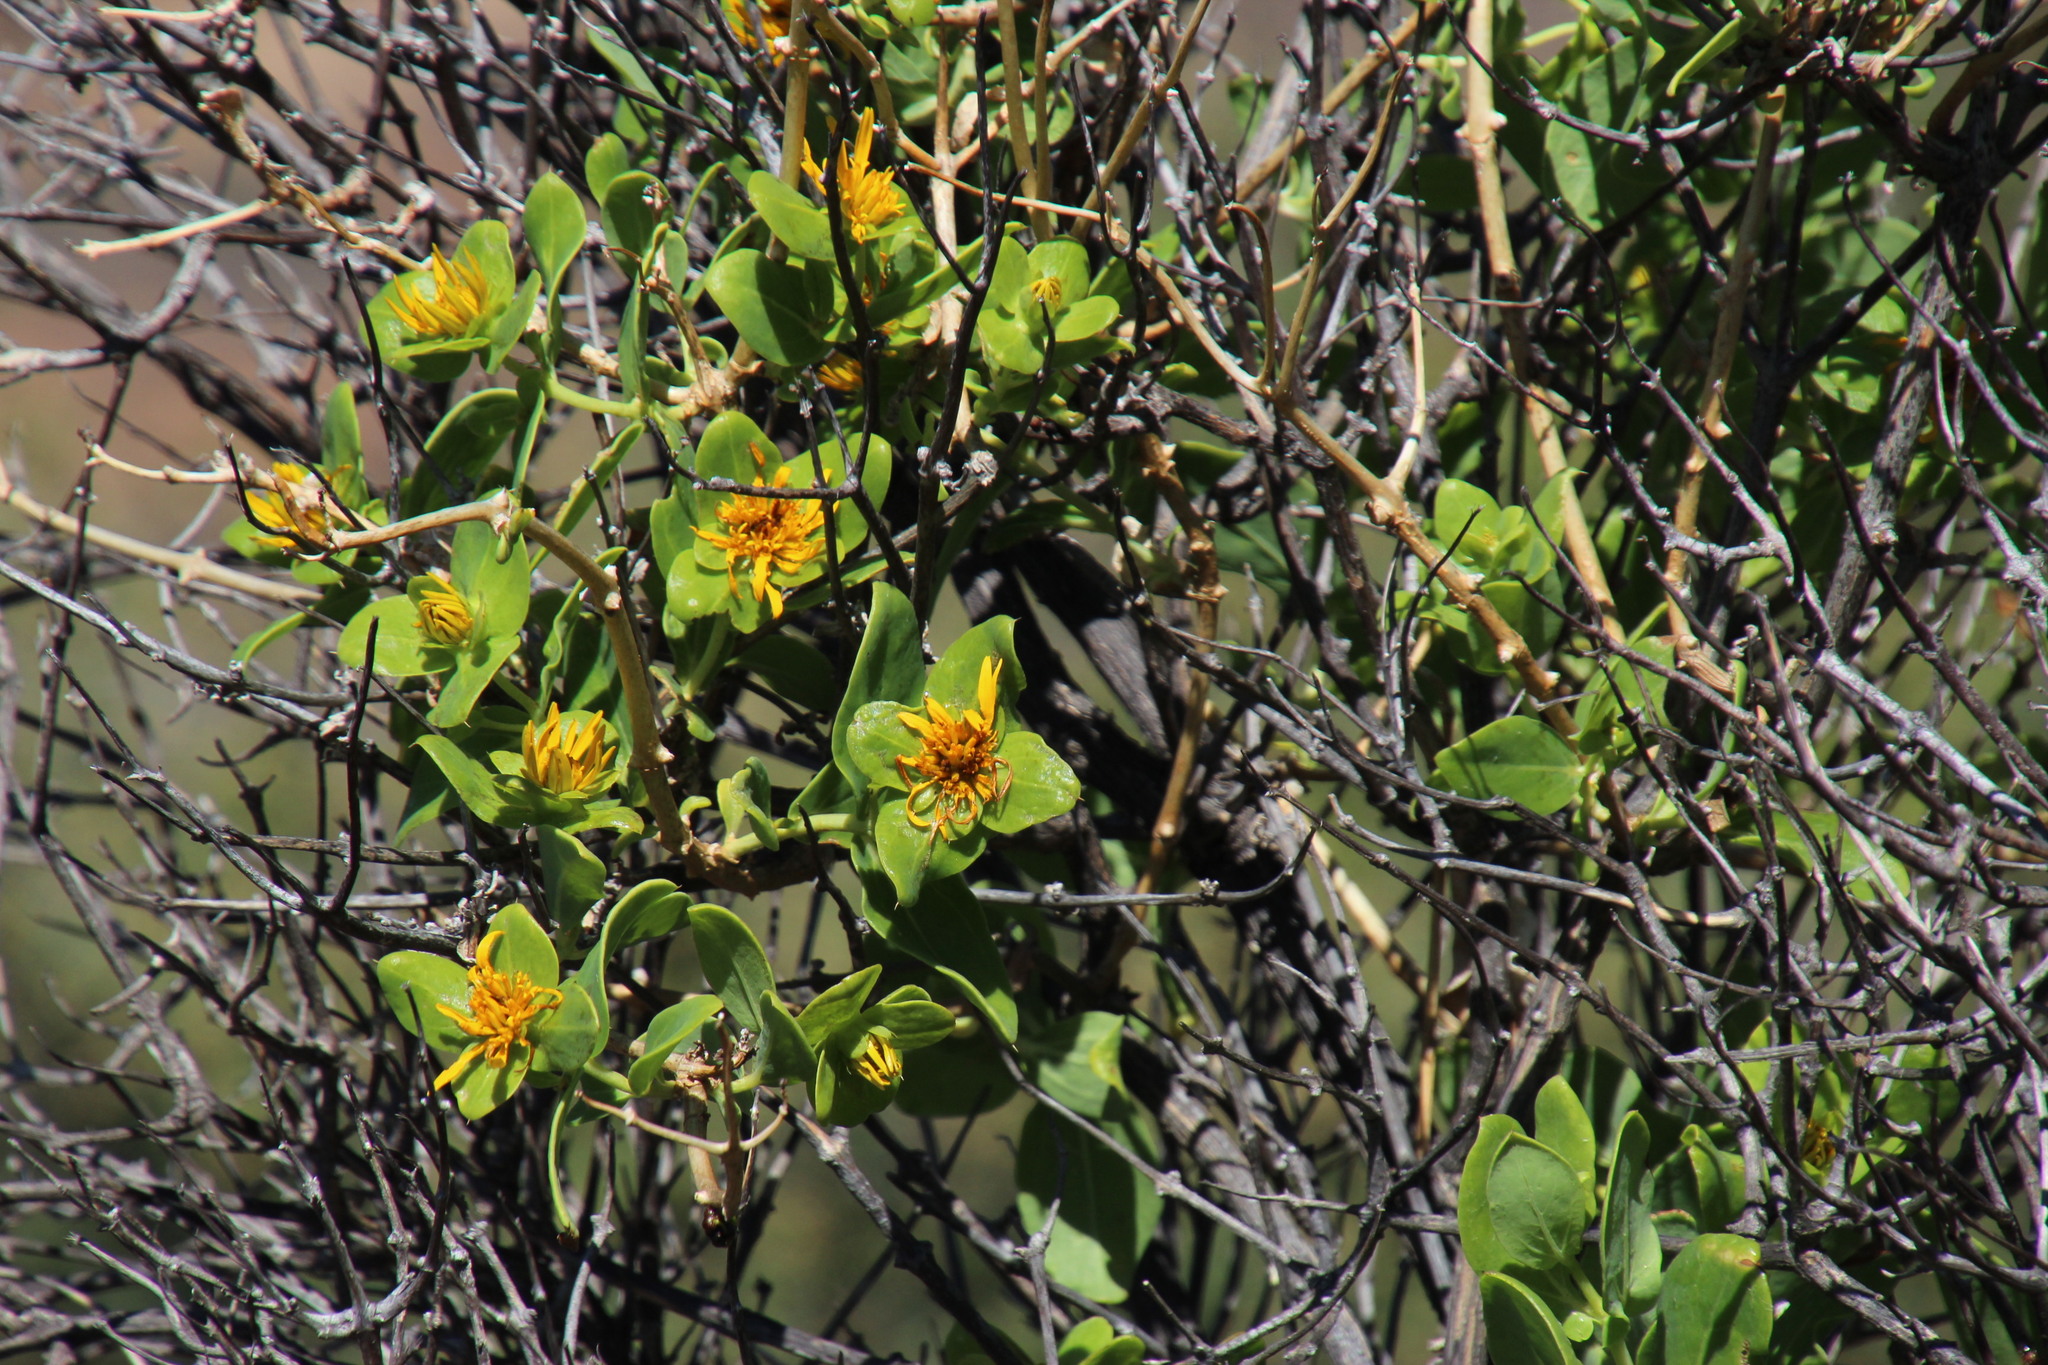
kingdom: Plantae
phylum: Tracheophyta
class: Magnoliopsida
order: Asterales
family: Asteraceae
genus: Didelta
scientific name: Didelta spinosa
